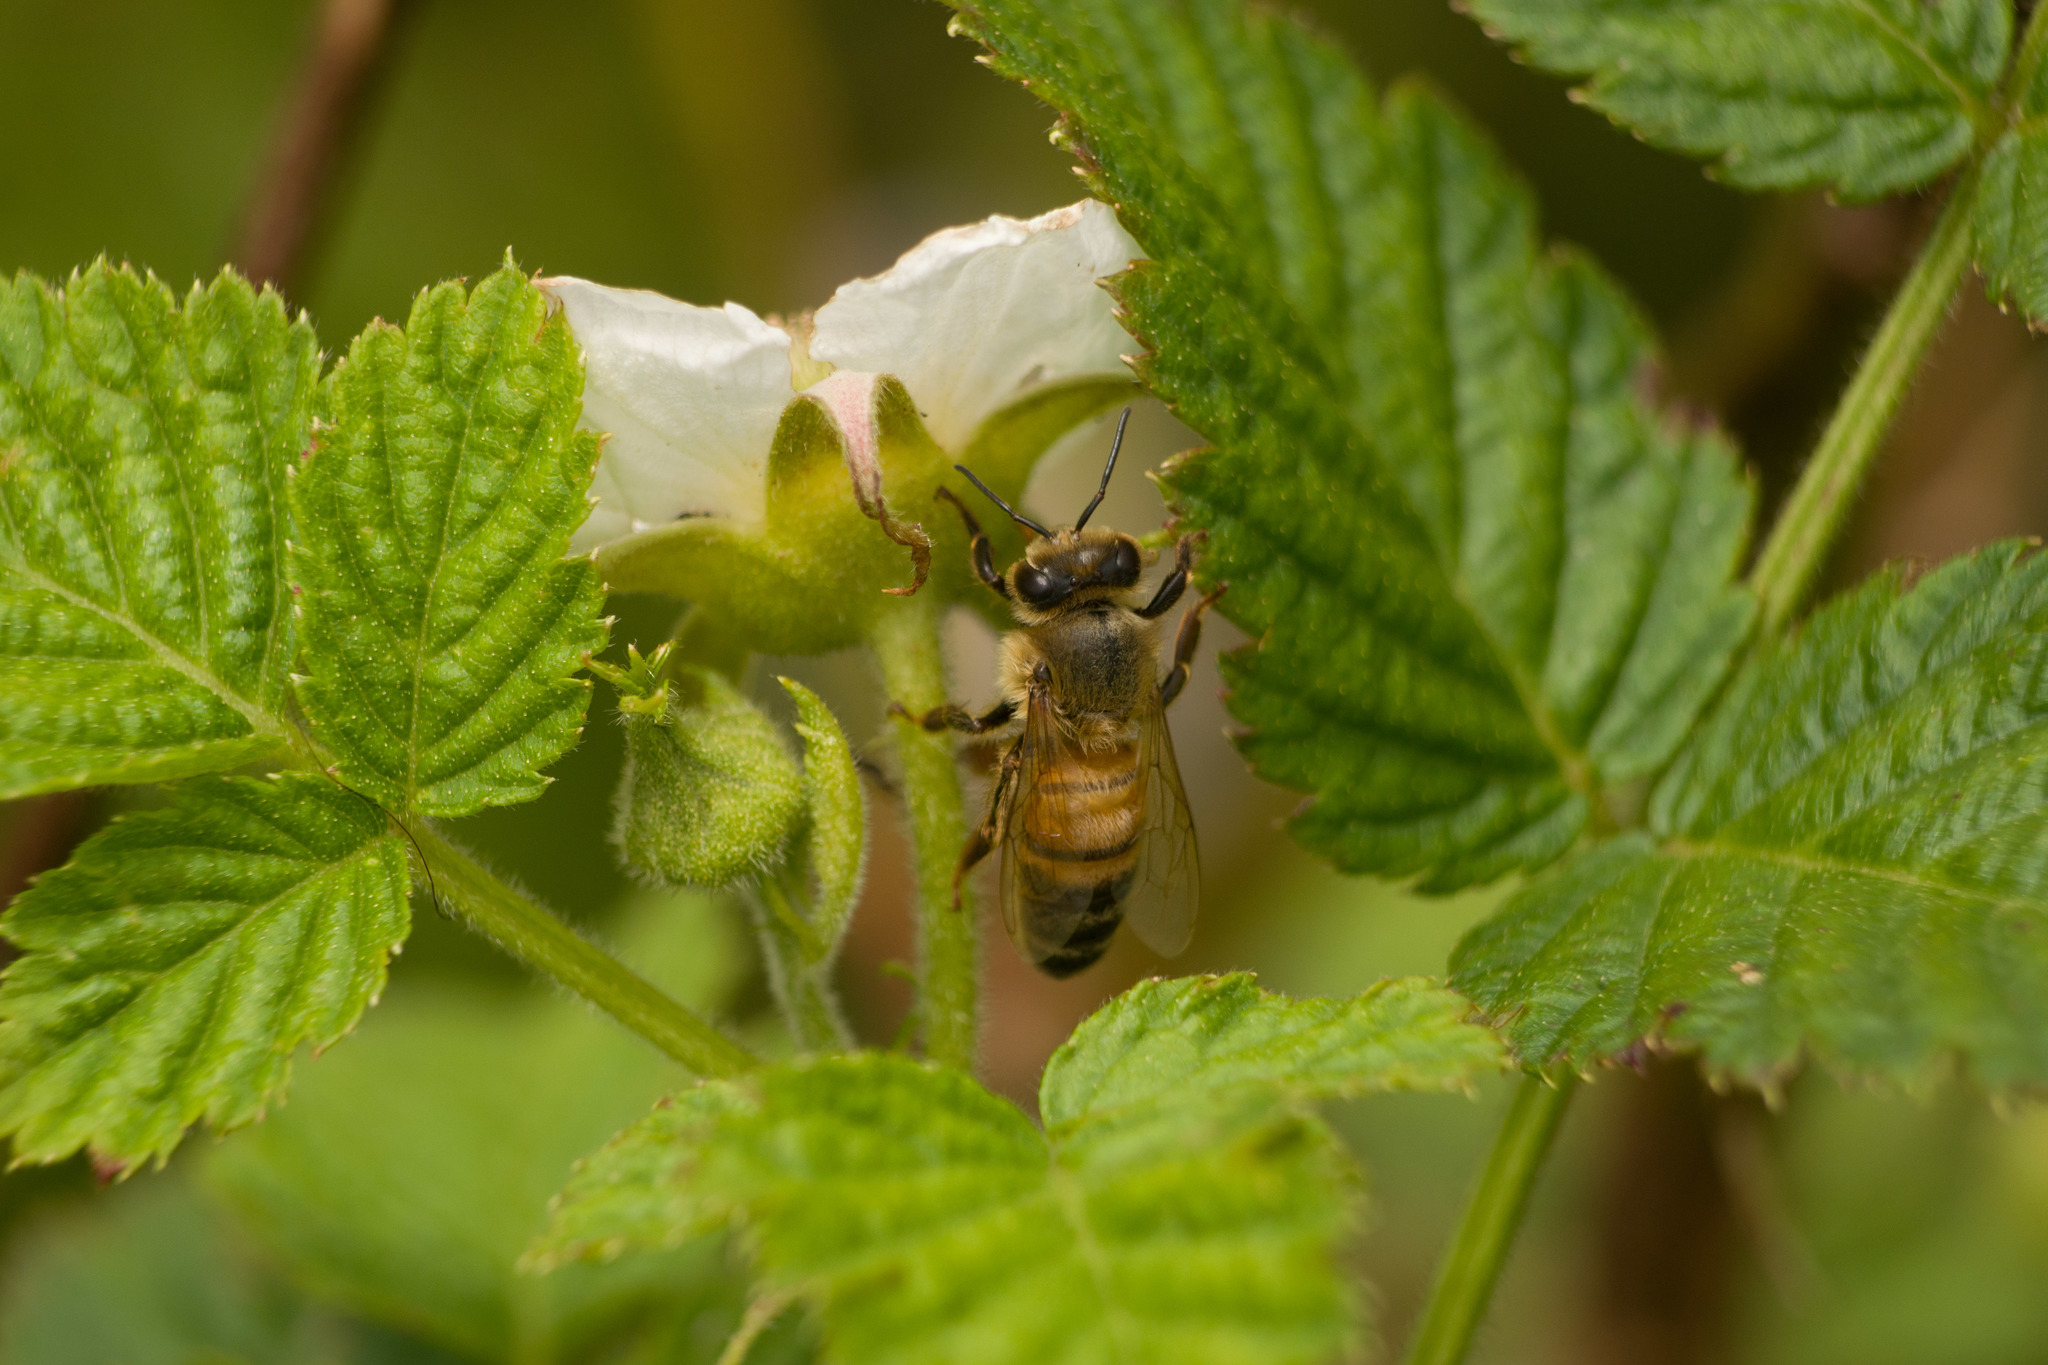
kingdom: Plantae
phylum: Tracheophyta
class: Magnoliopsida
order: Rosales
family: Rosaceae
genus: Rubus
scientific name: Rubus rosifolius
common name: Roseleaf raspberry
